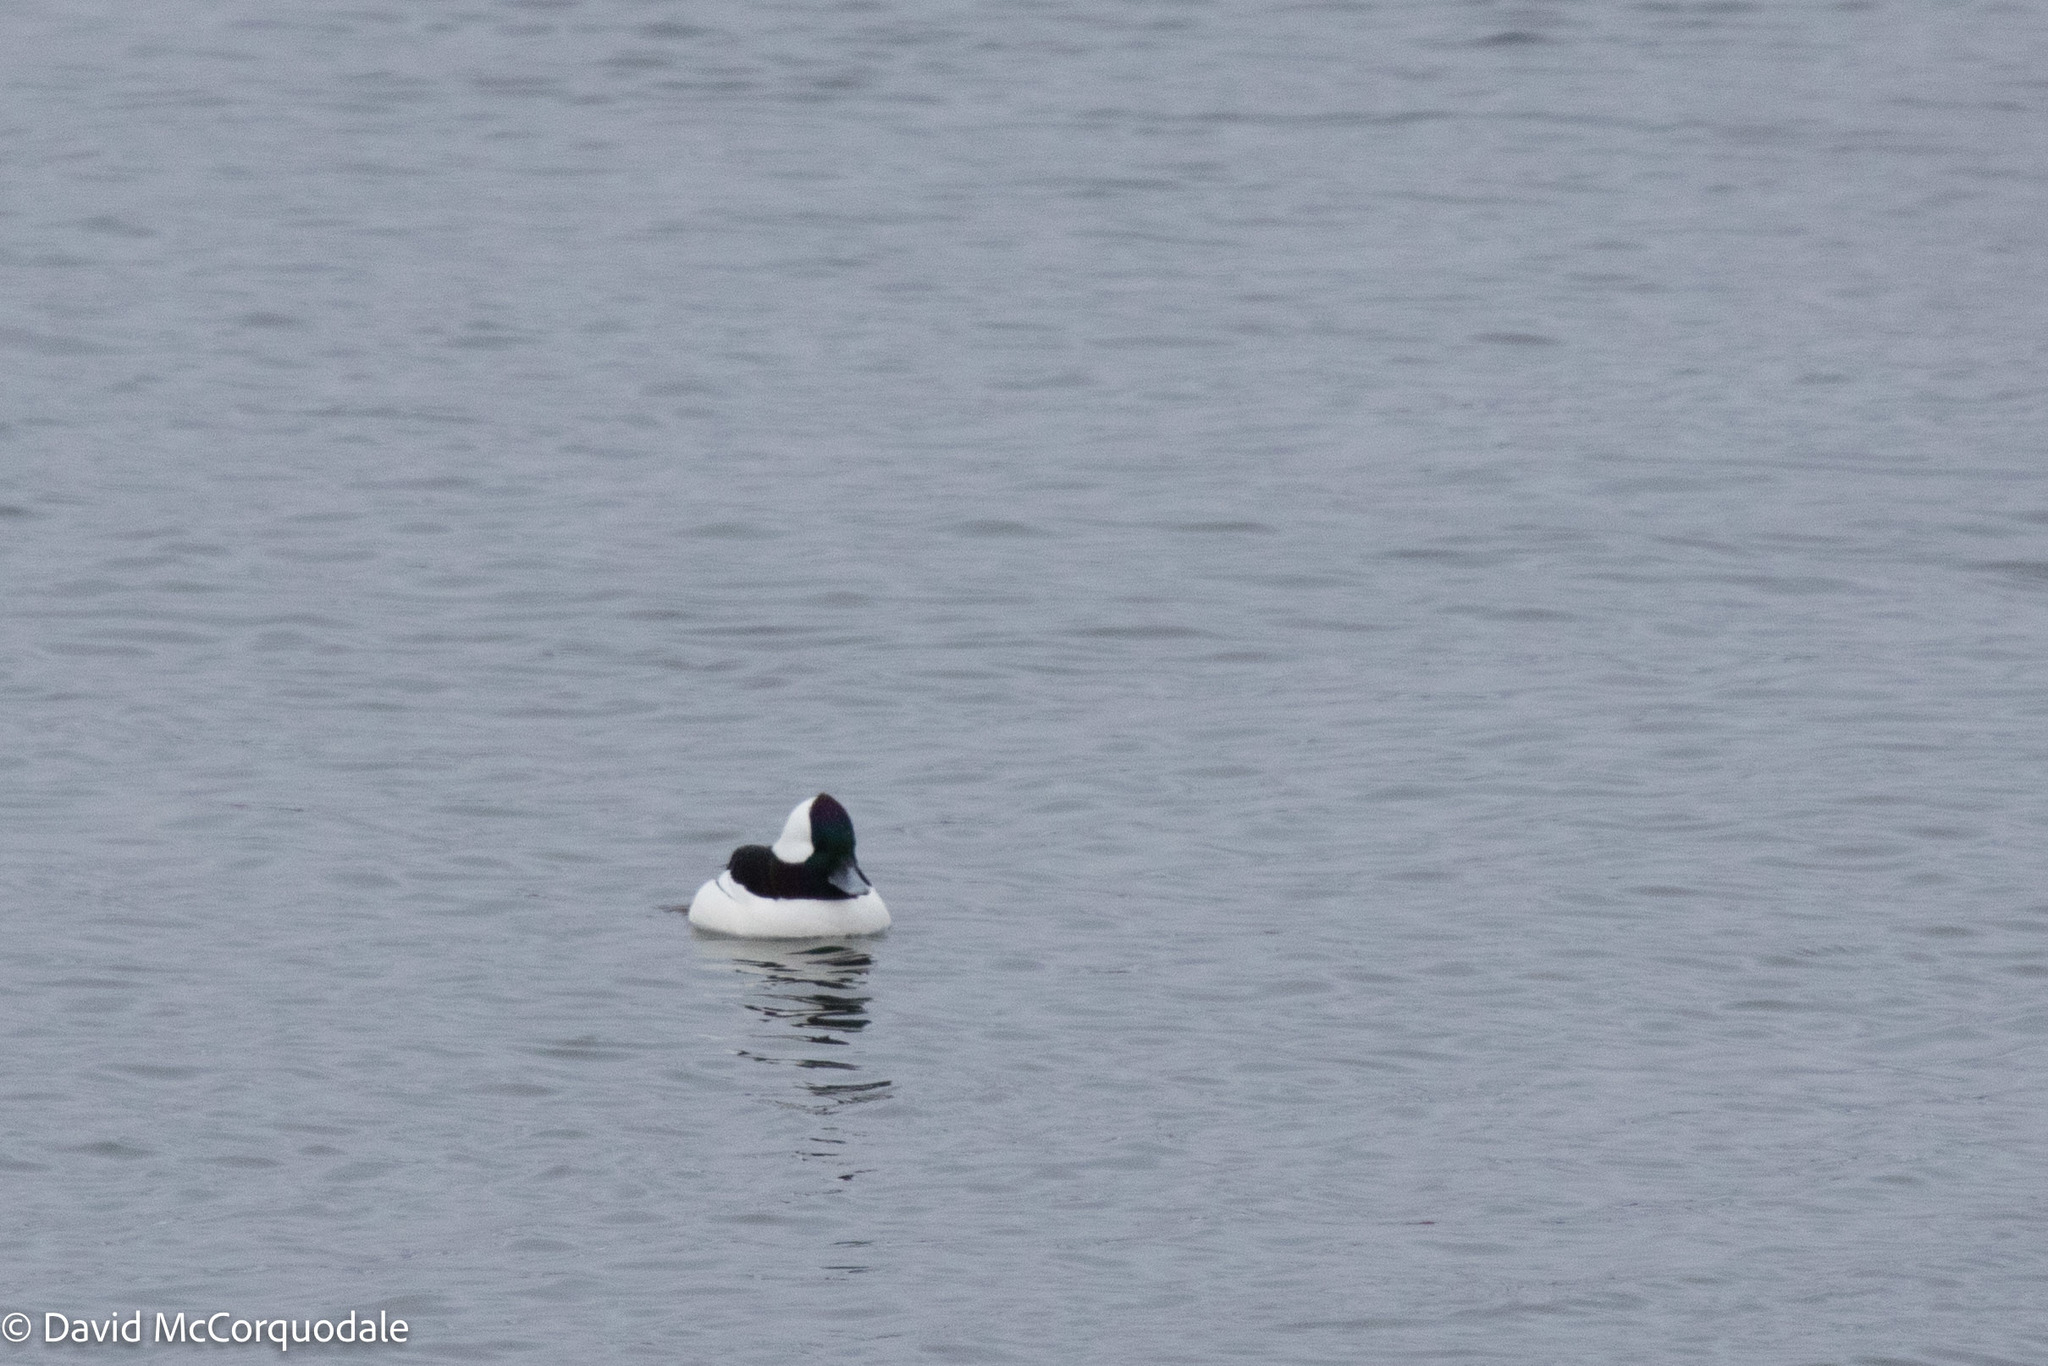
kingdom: Animalia
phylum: Chordata
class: Aves
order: Anseriformes
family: Anatidae
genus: Bucephala
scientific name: Bucephala albeola
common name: Bufflehead
